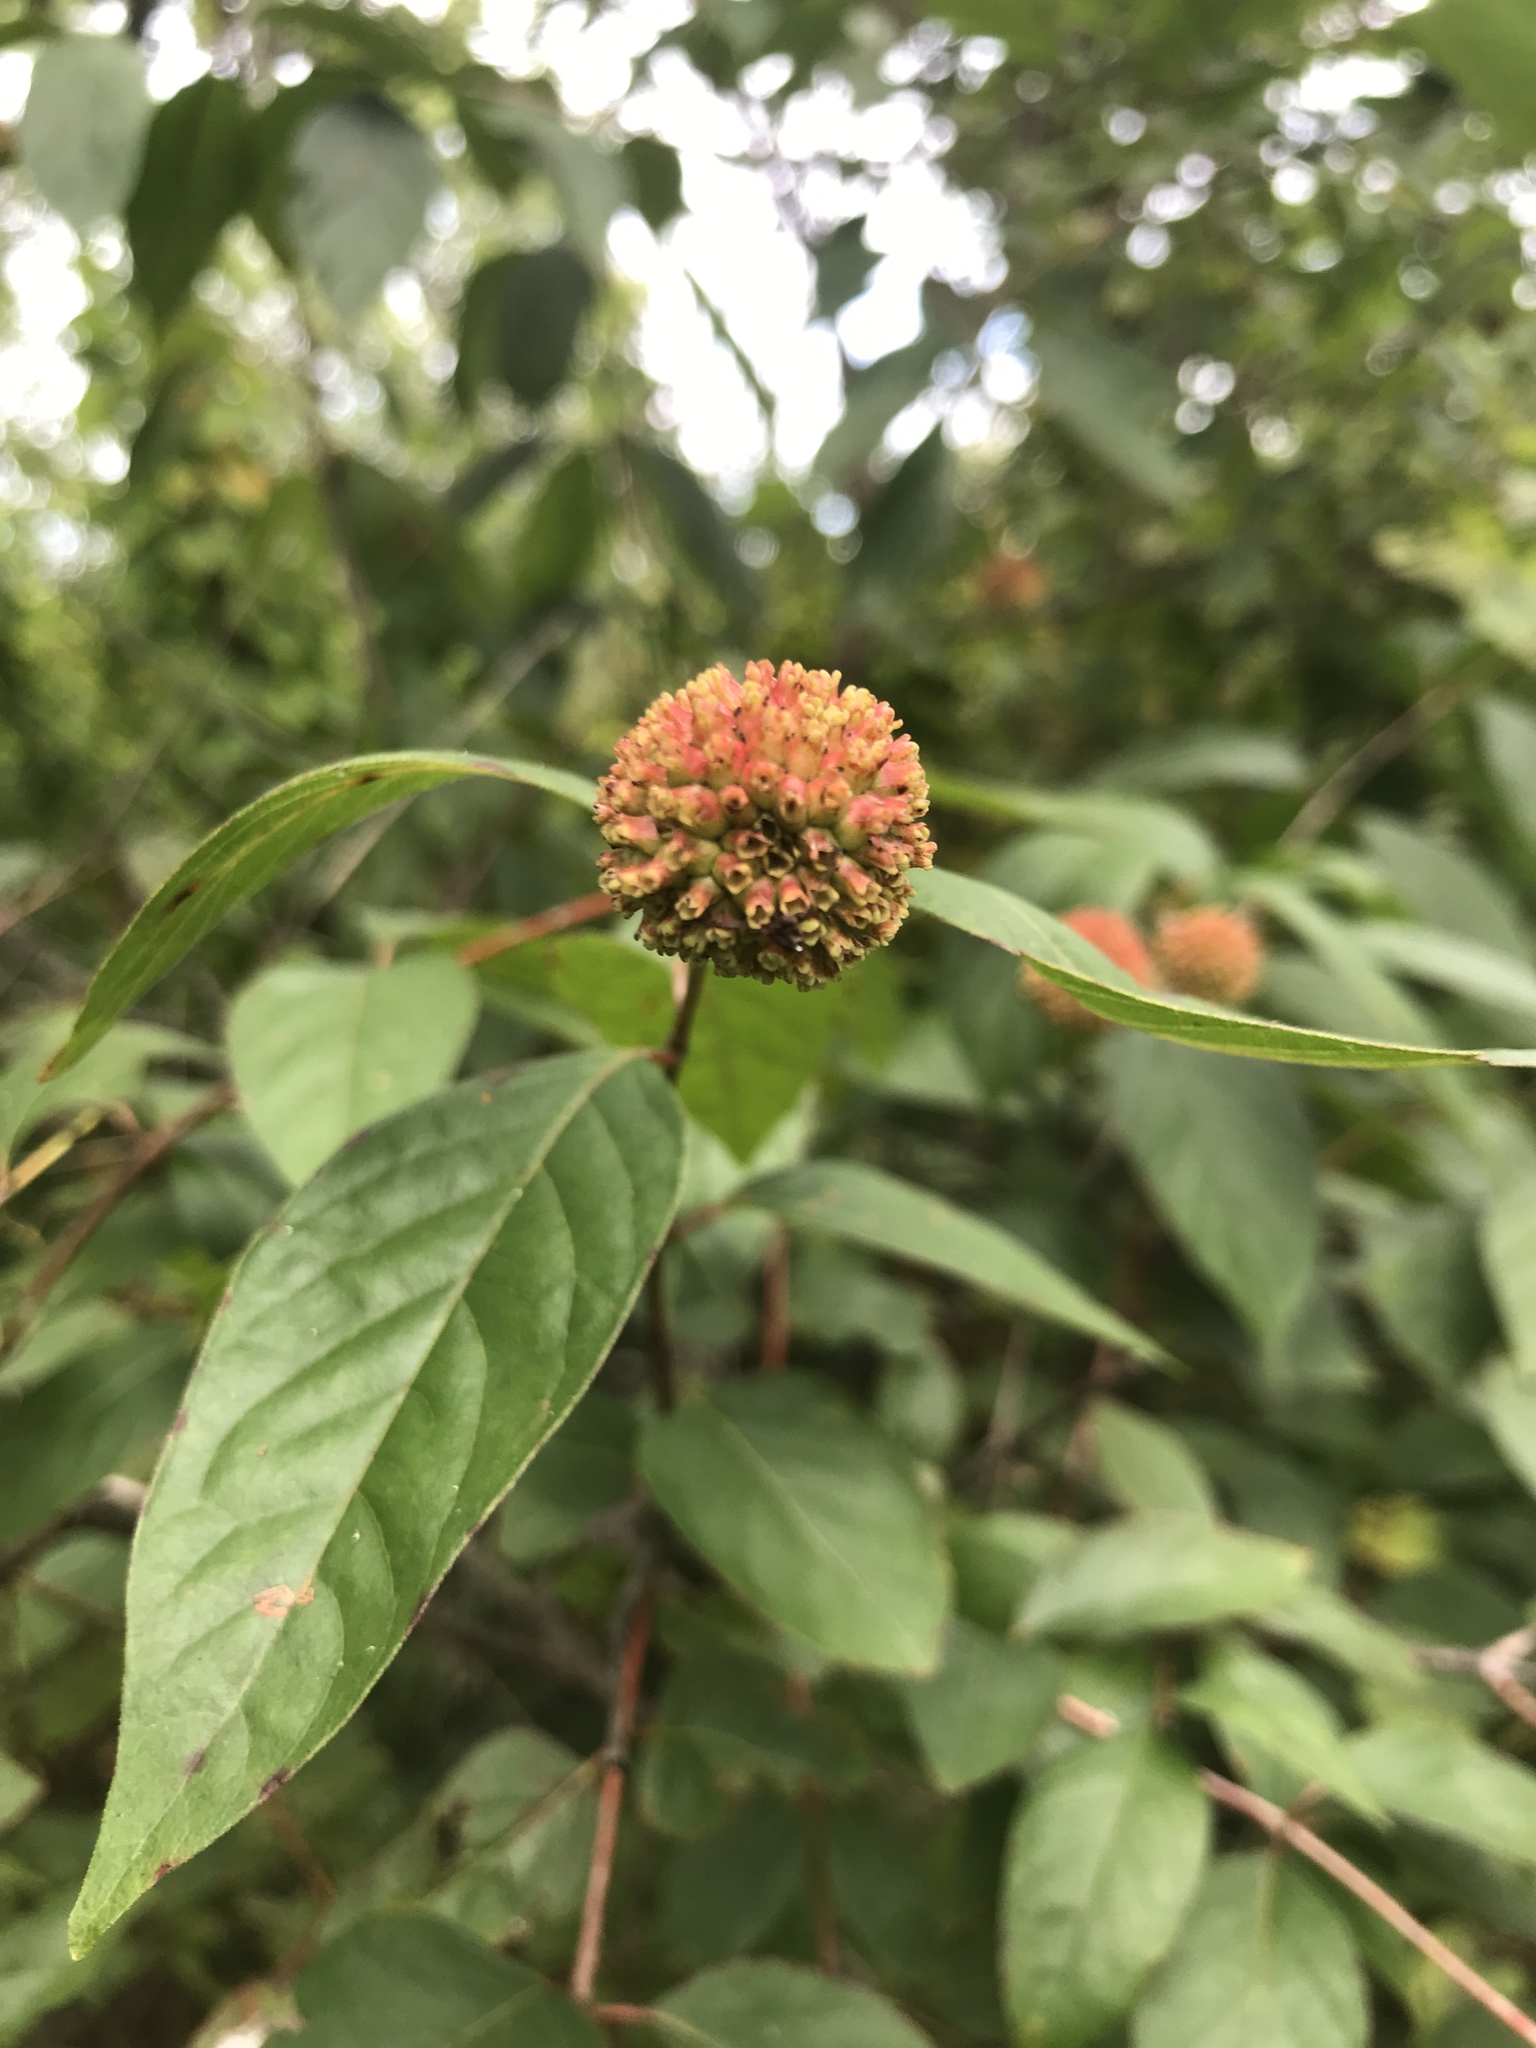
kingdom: Plantae
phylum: Tracheophyta
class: Magnoliopsida
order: Gentianales
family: Rubiaceae
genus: Cephalanthus
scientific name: Cephalanthus occidentalis
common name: Button-willow
